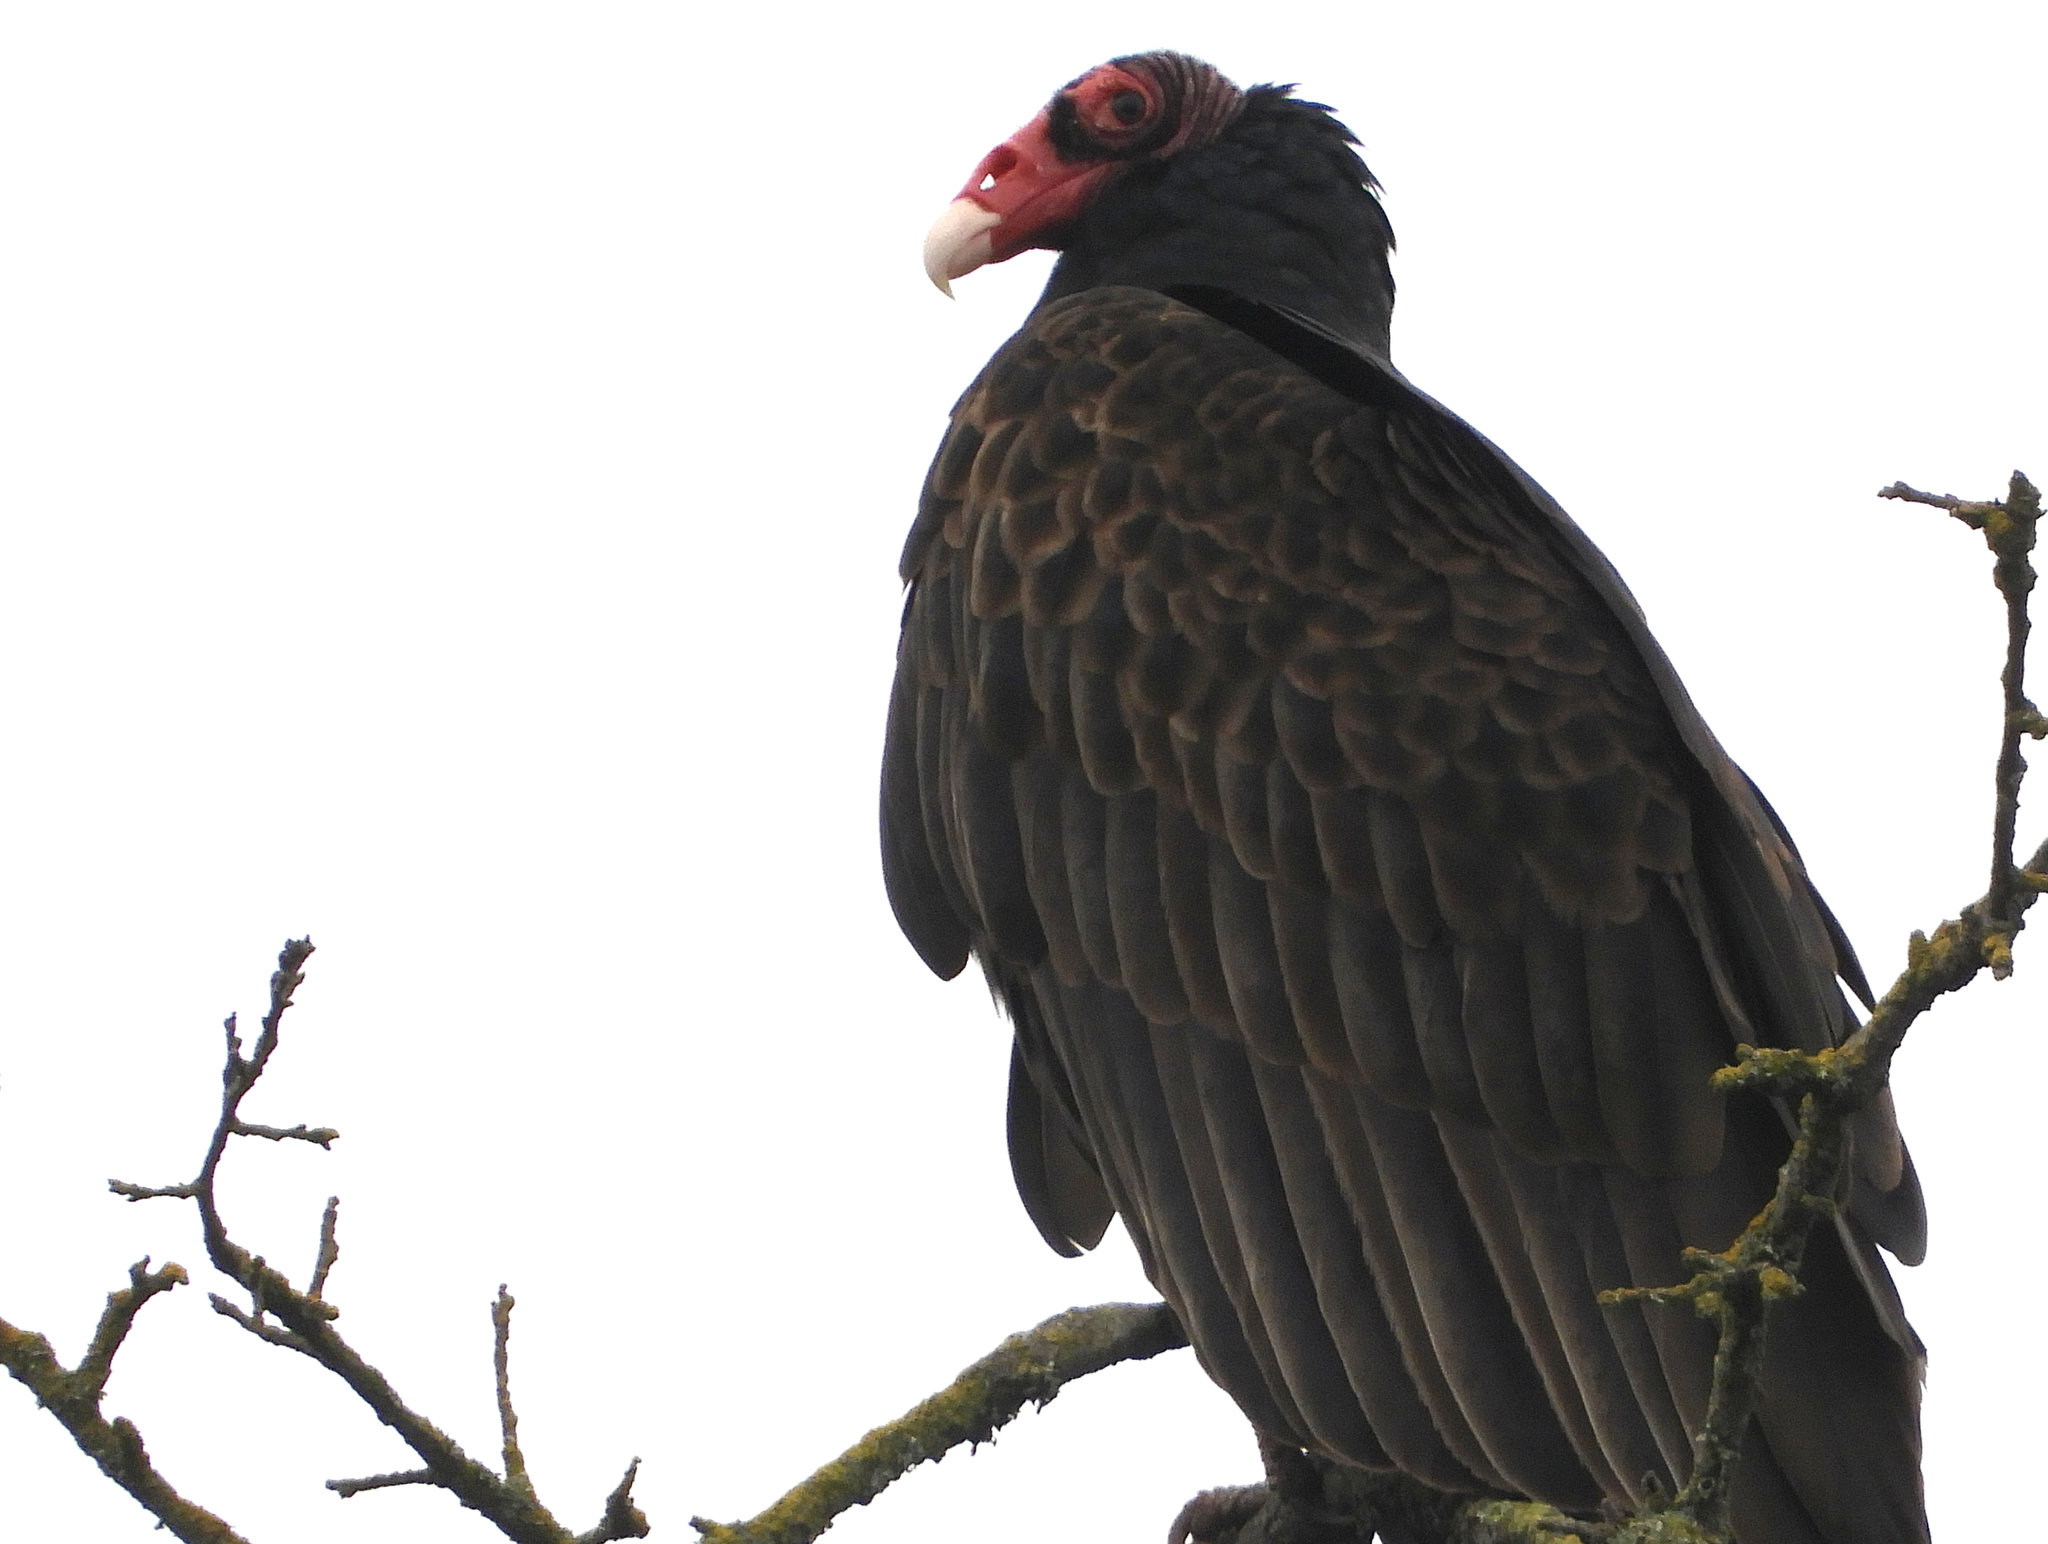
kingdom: Animalia
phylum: Chordata
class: Aves
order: Accipitriformes
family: Cathartidae
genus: Cathartes
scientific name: Cathartes aura
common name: Turkey vulture
